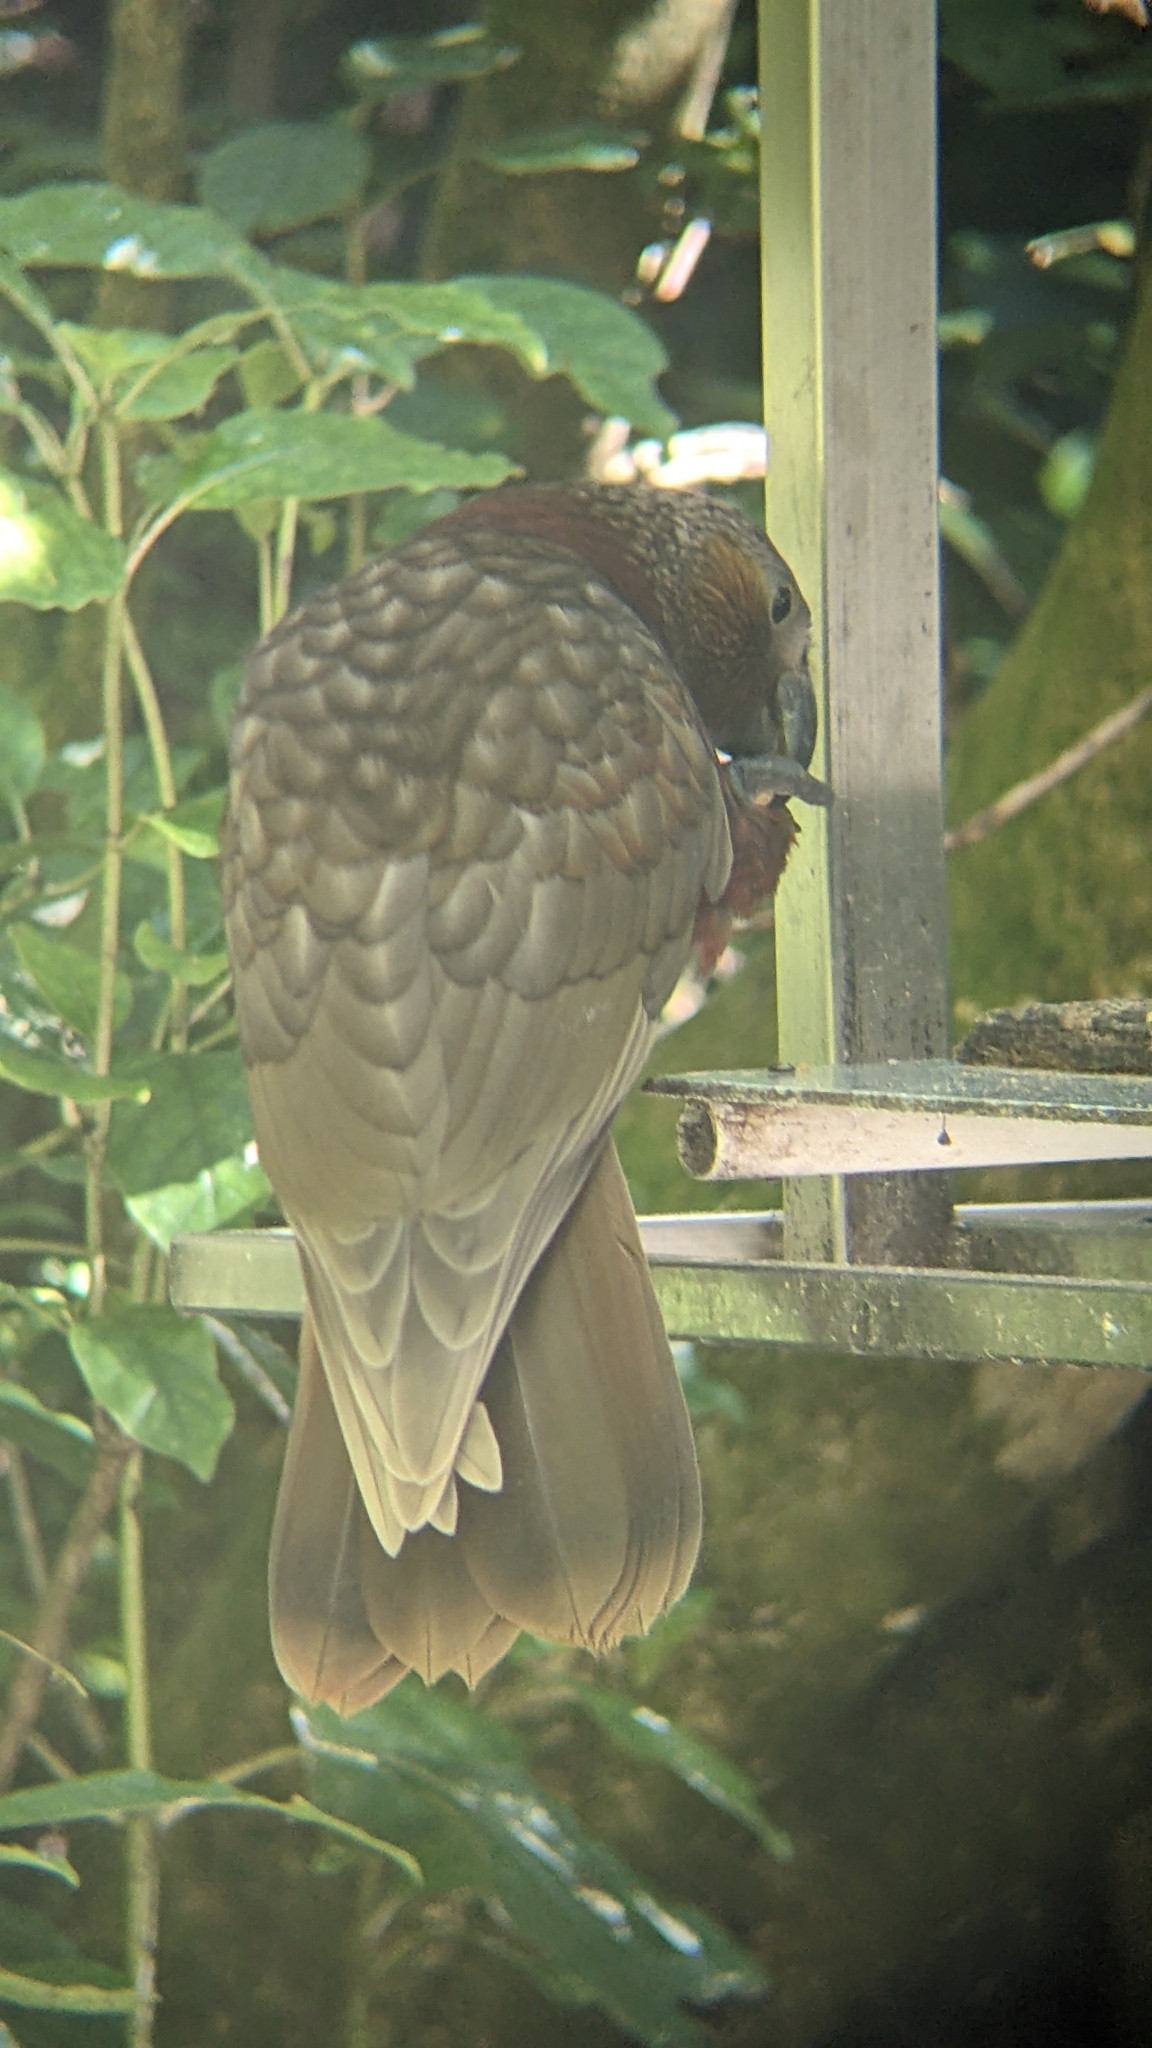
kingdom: Animalia
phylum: Chordata
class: Aves
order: Psittaciformes
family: Psittacidae
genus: Nestor
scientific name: Nestor meridionalis
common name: New zealand kaka
